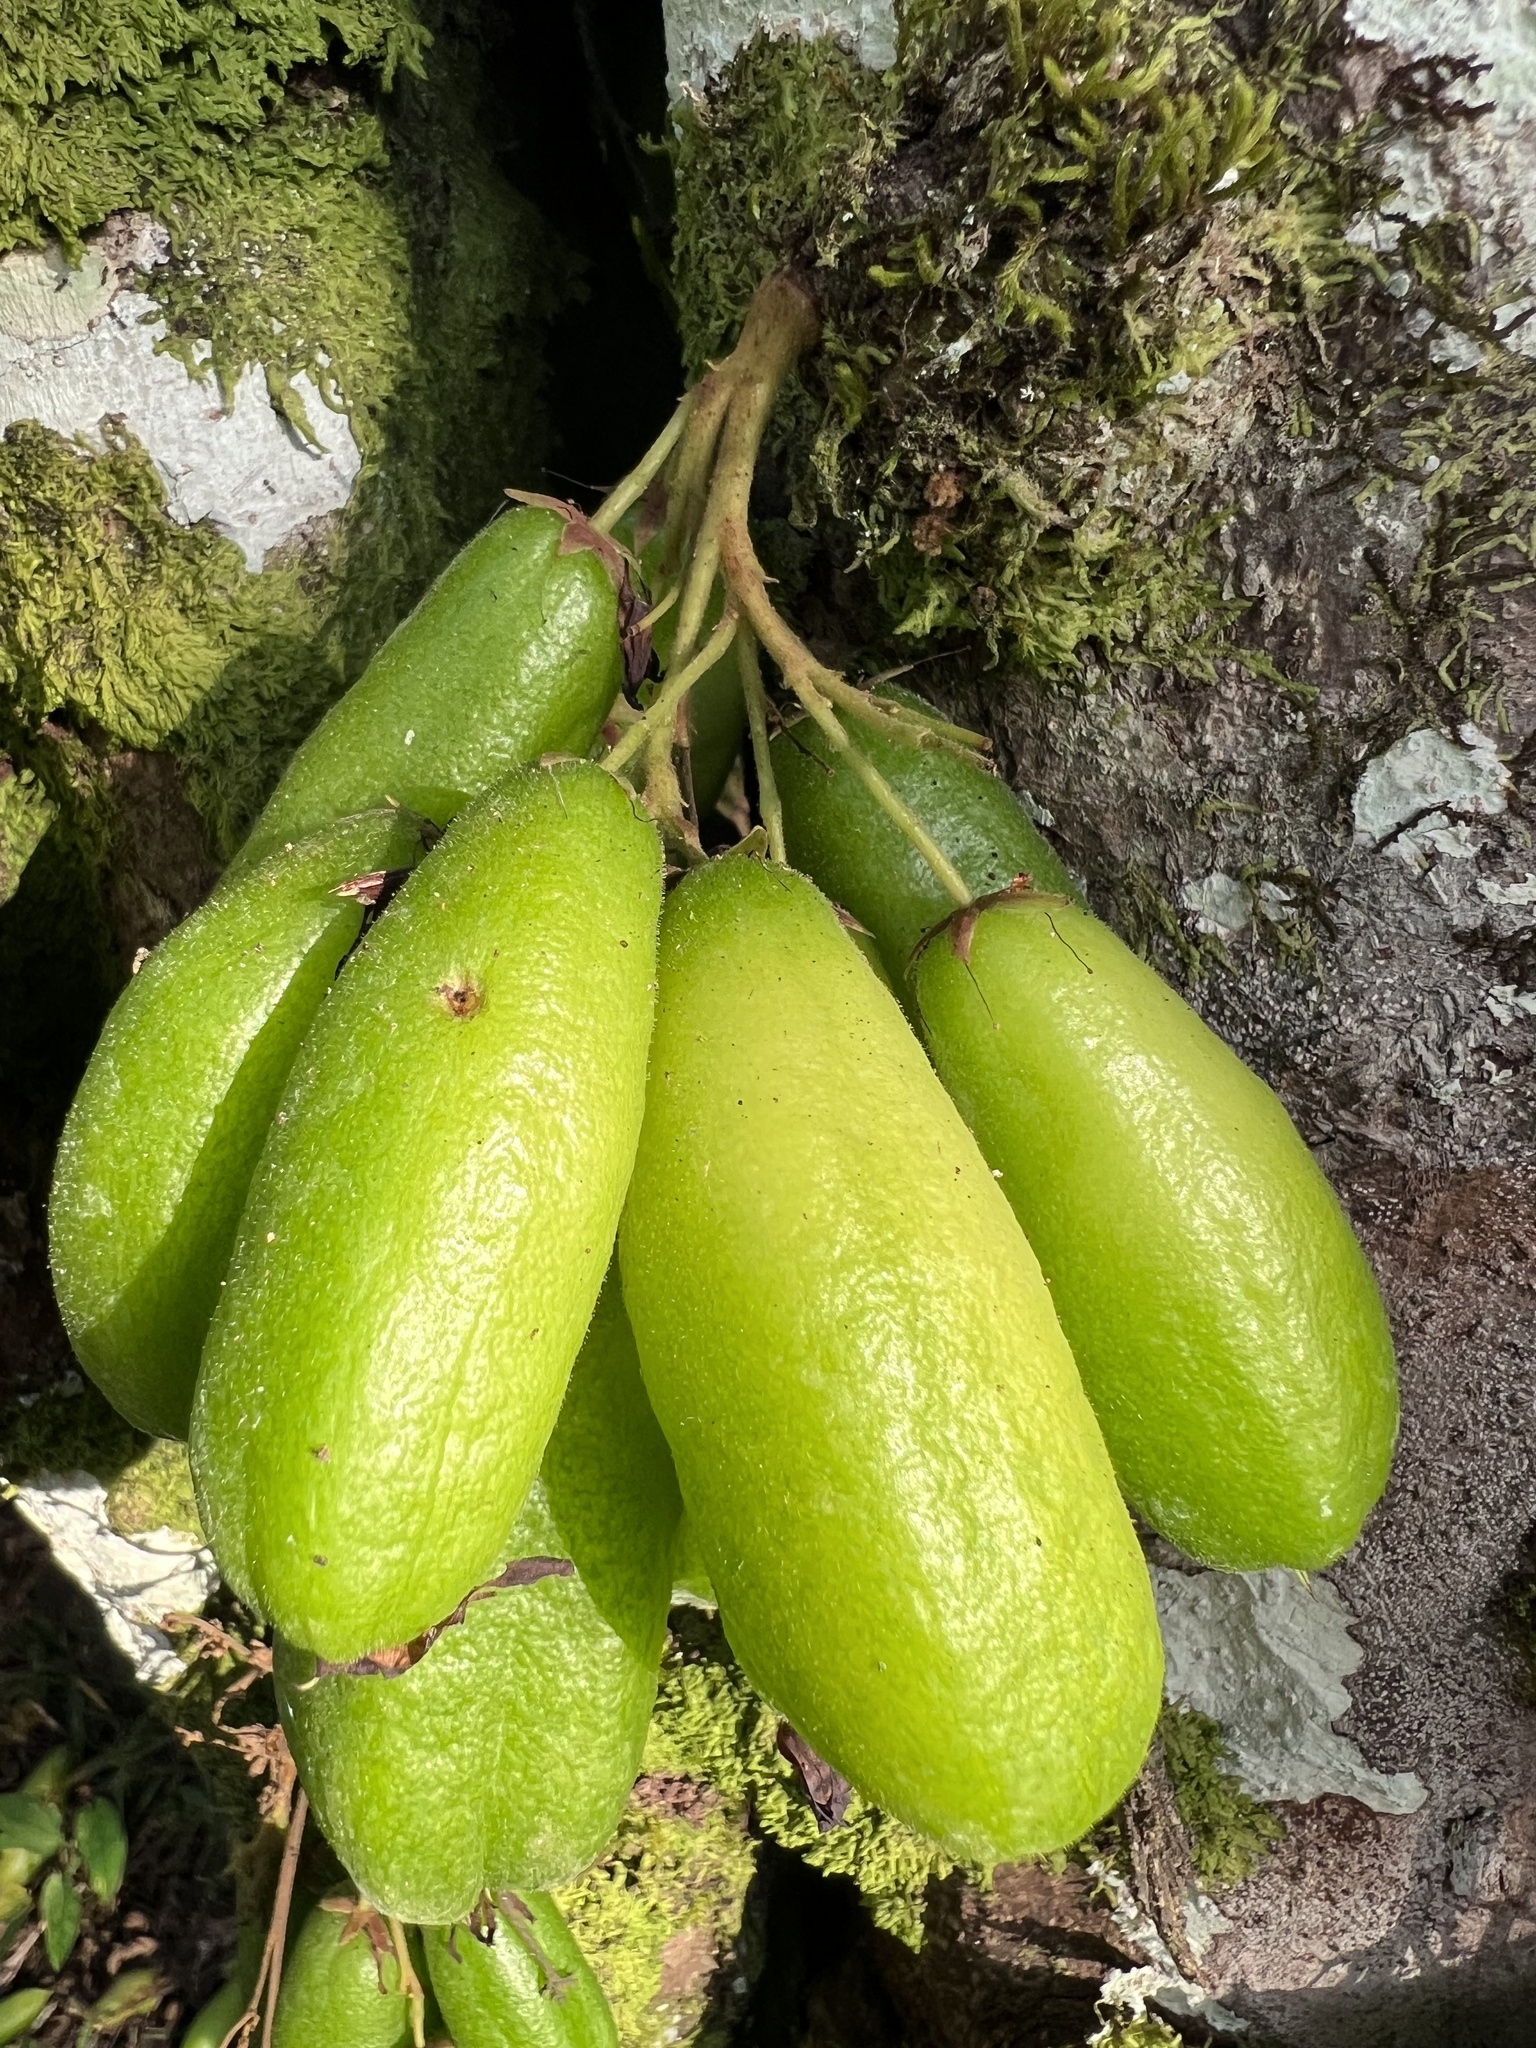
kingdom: Plantae
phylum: Tracheophyta
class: Magnoliopsida
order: Oxalidales
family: Oxalidaceae
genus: Averrhoa
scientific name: Averrhoa bilimbi
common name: Bilimbi
